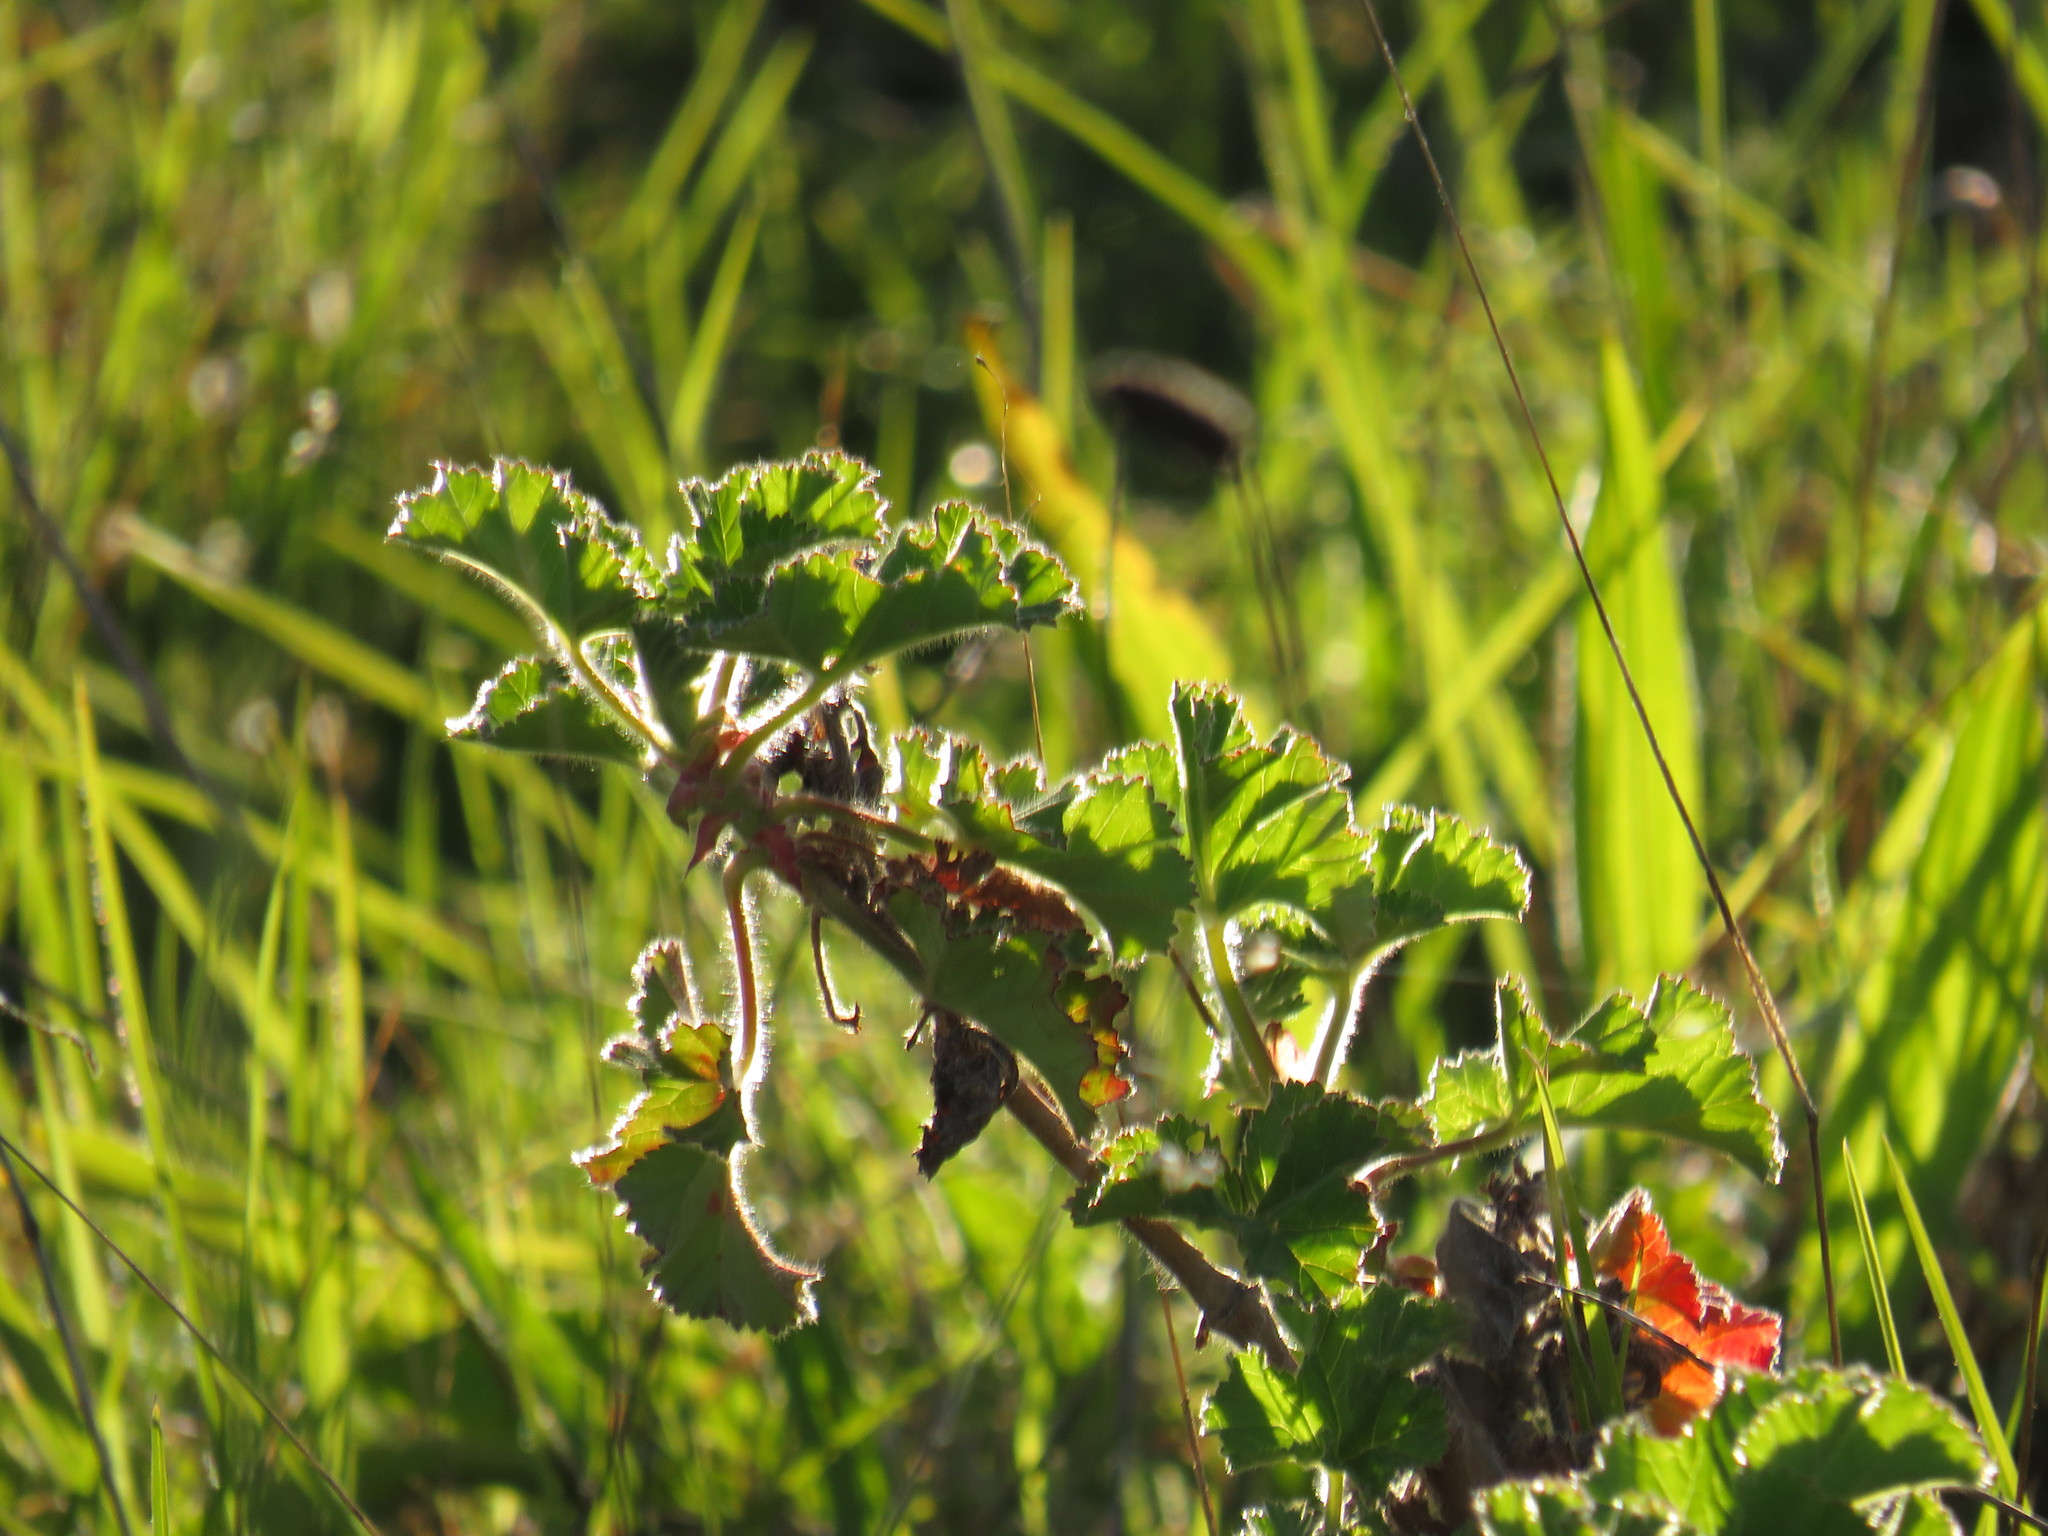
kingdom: Plantae
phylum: Tracheophyta
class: Magnoliopsida
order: Geraniales
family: Geraniaceae
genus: Pelargonium
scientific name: Pelargonium capitatum
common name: Rose scented geranium
